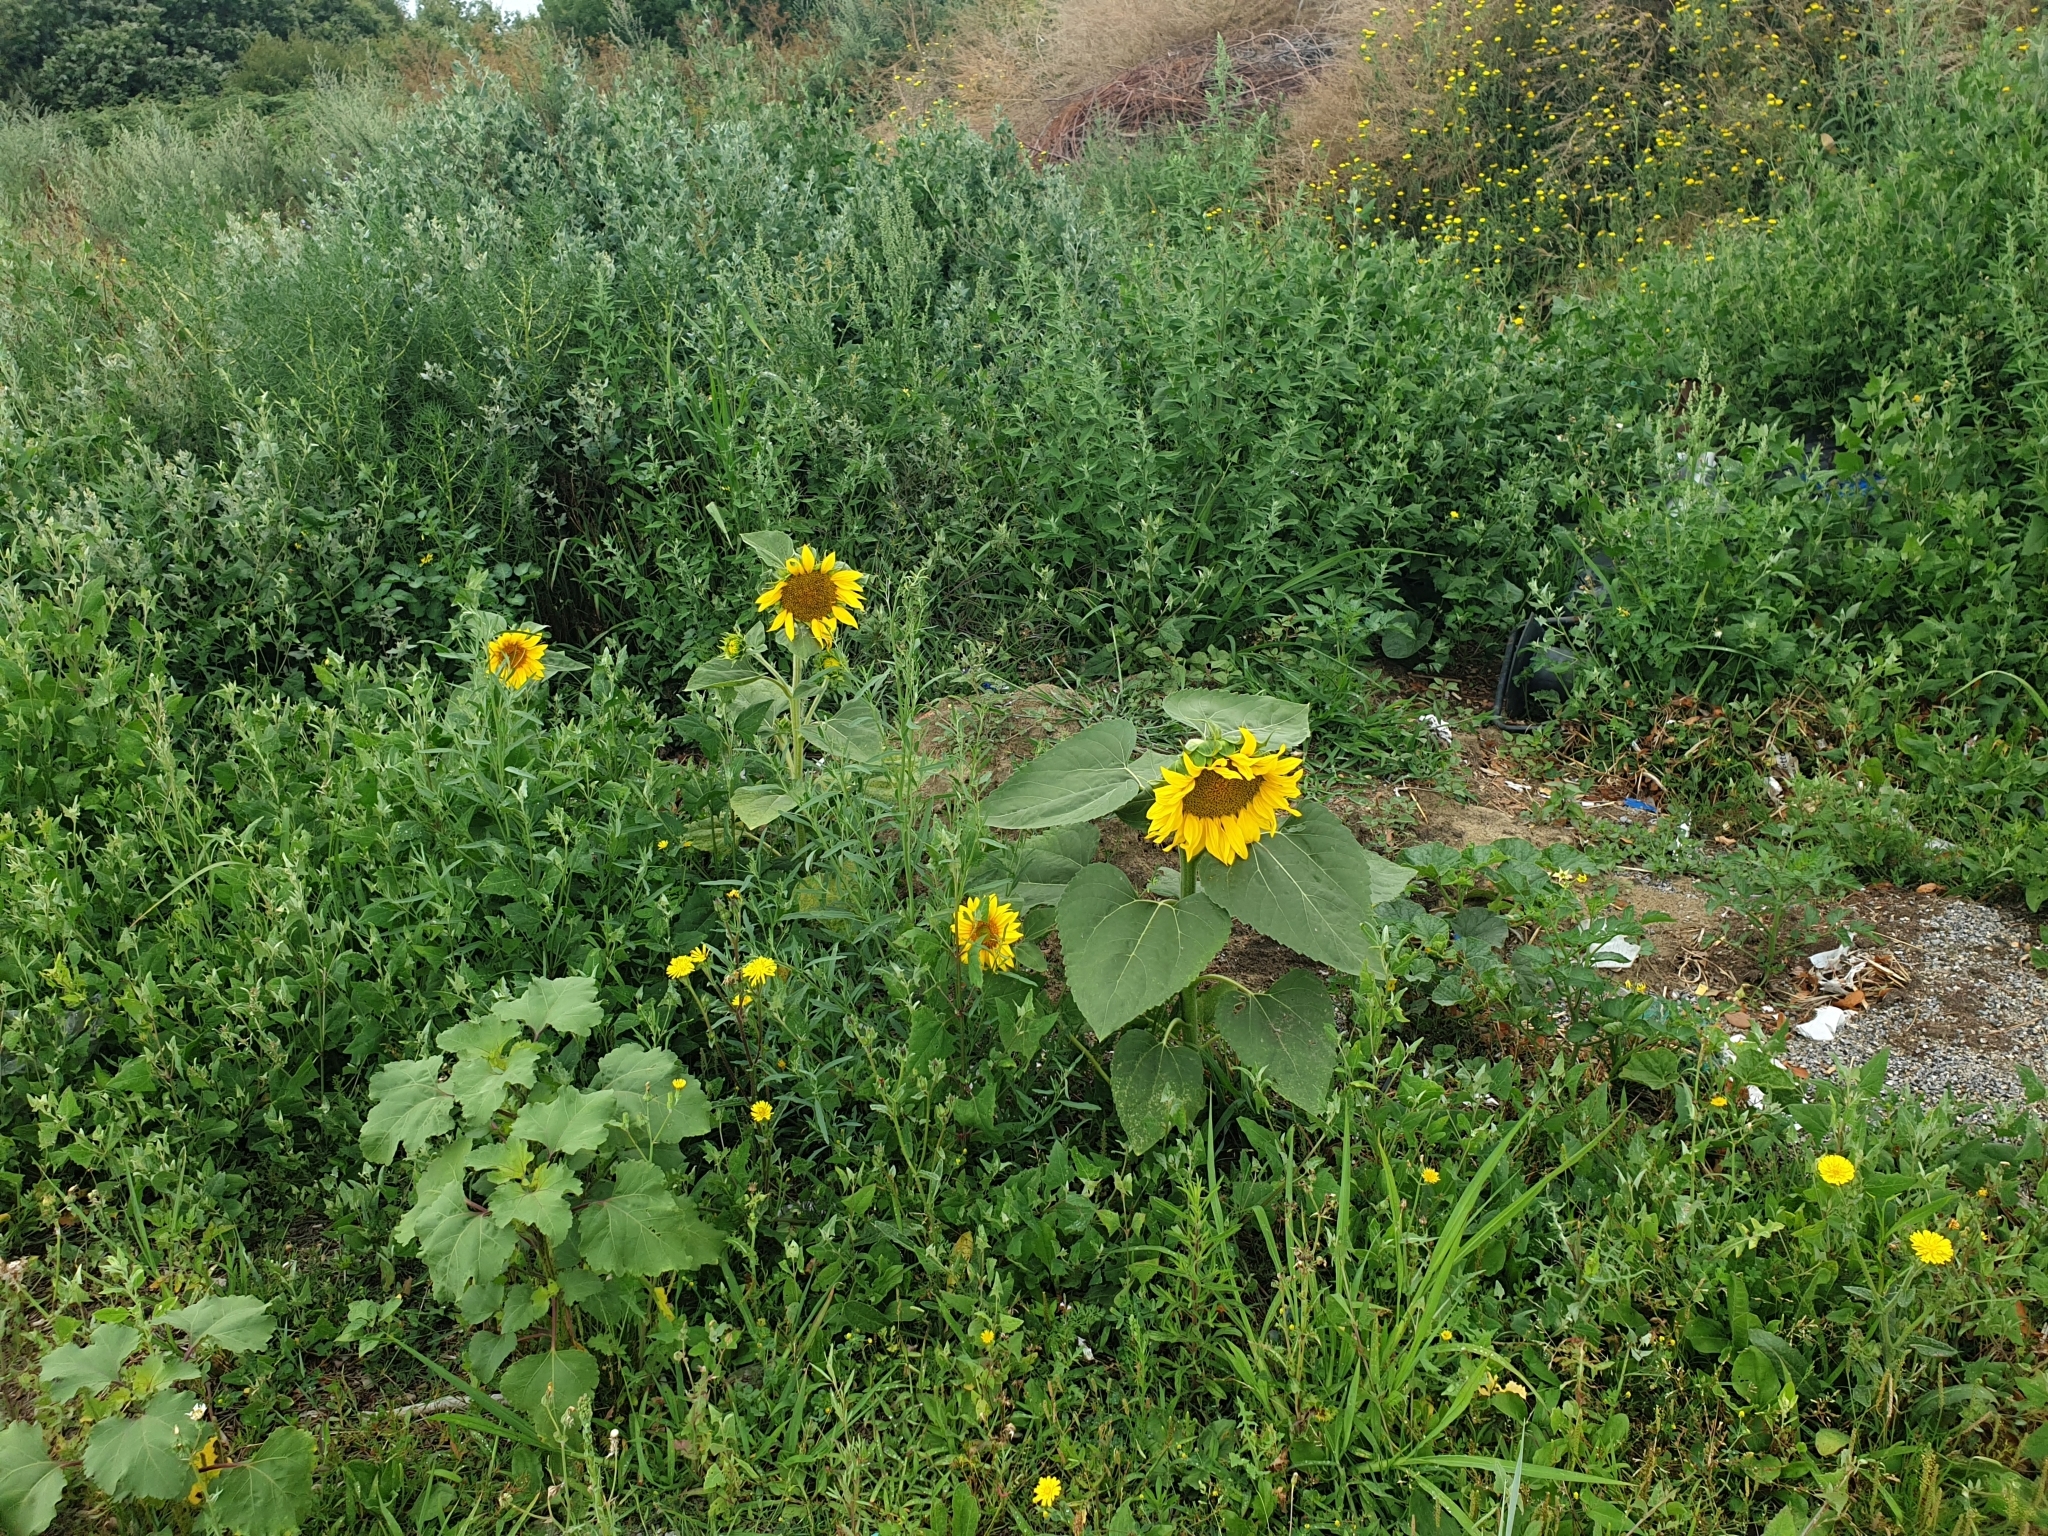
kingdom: Plantae
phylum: Tracheophyta
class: Magnoliopsida
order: Asterales
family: Asteraceae
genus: Helianthus
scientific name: Helianthus annuus
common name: Sunflower
